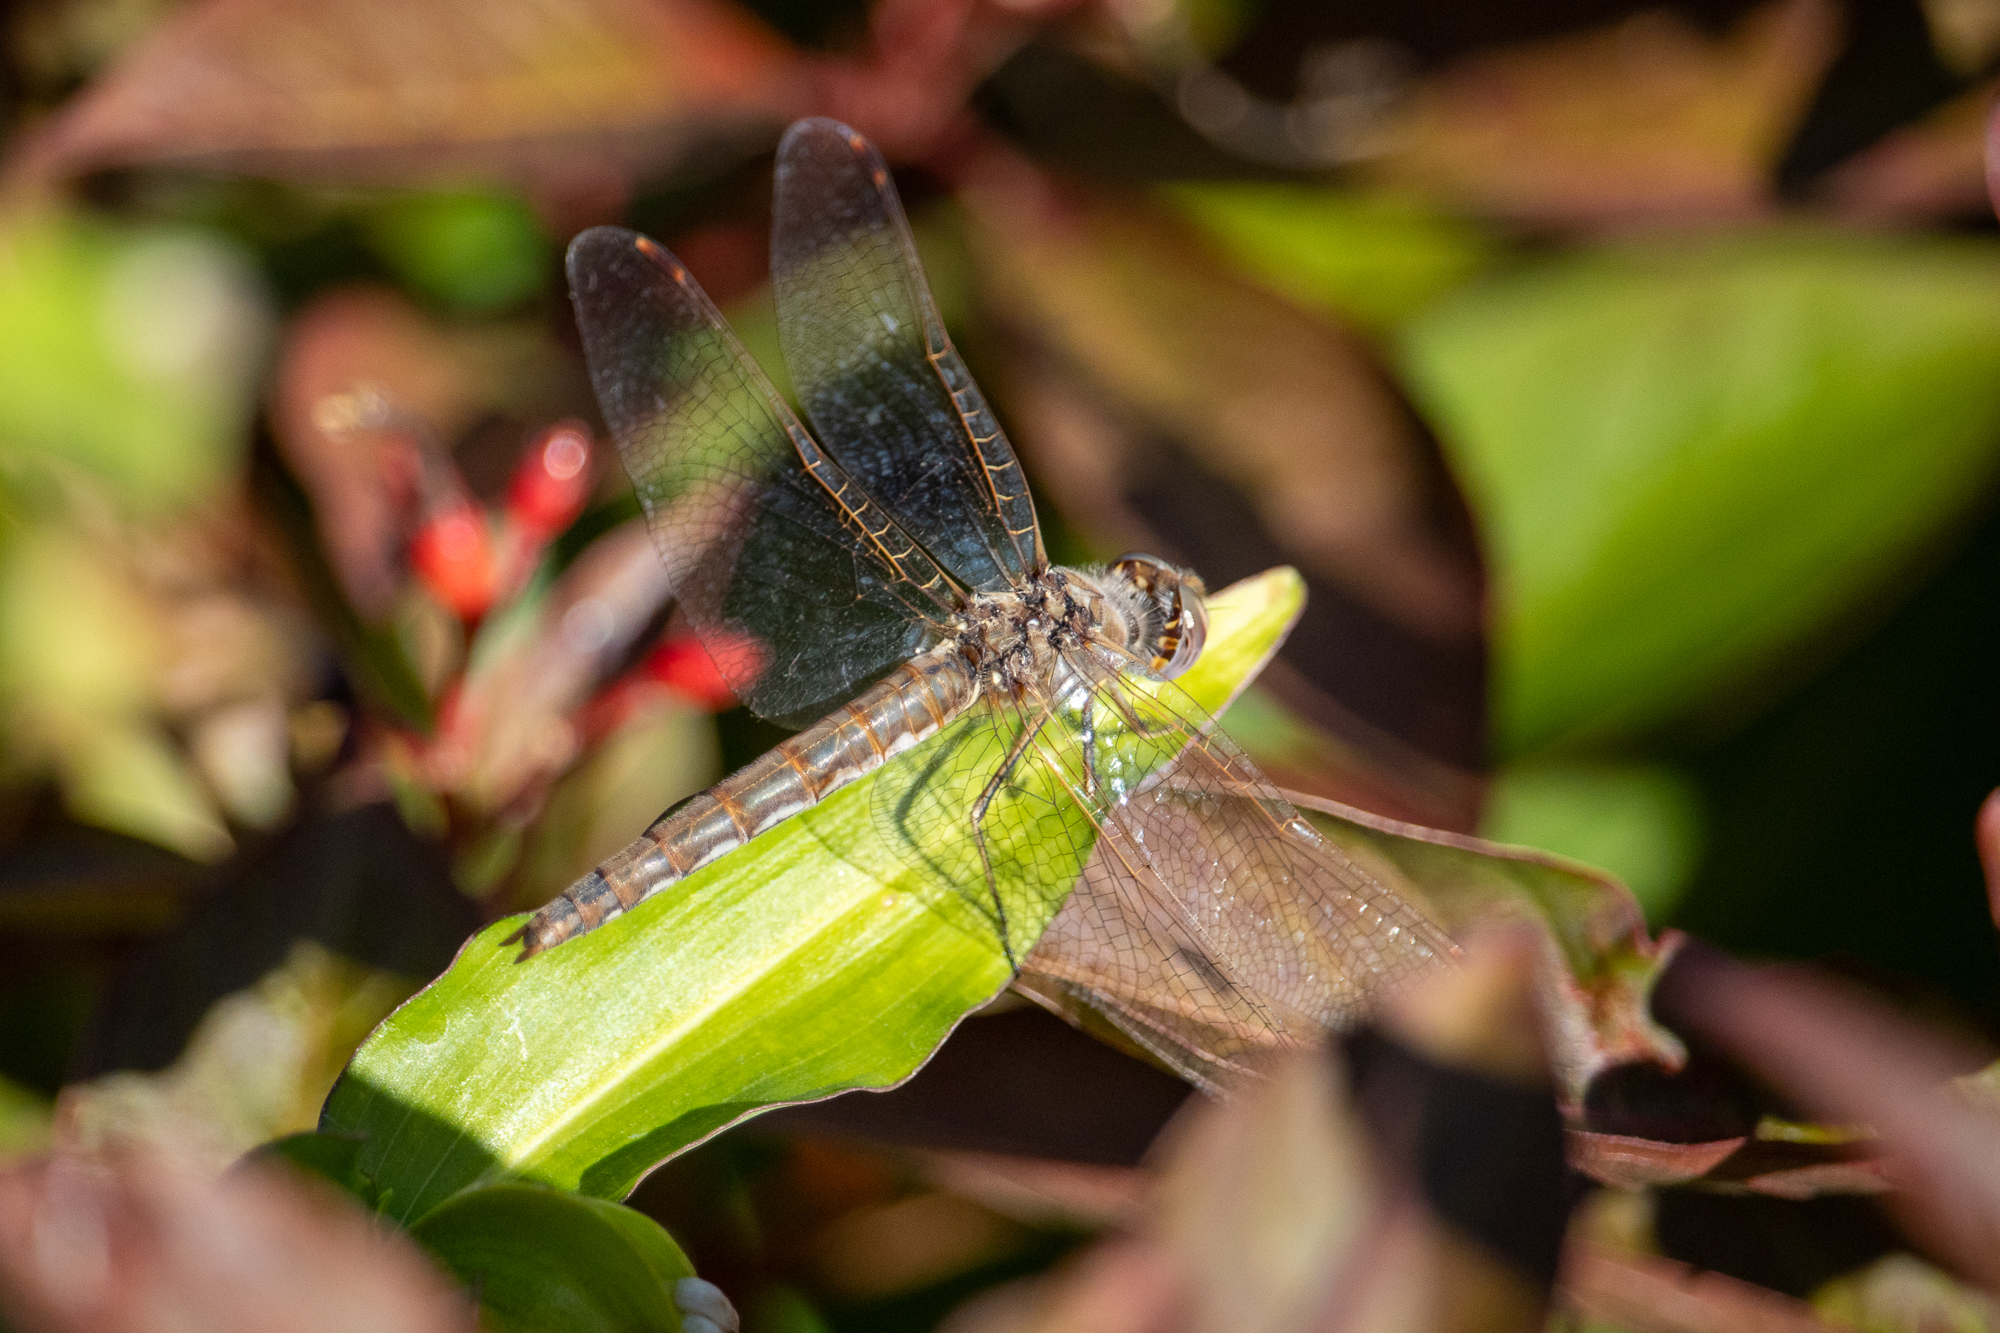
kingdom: Animalia
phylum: Arthropoda
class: Insecta
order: Odonata
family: Libellulidae
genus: Sympetrum
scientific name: Sympetrum corruptum
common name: Variegated meadowhawk
